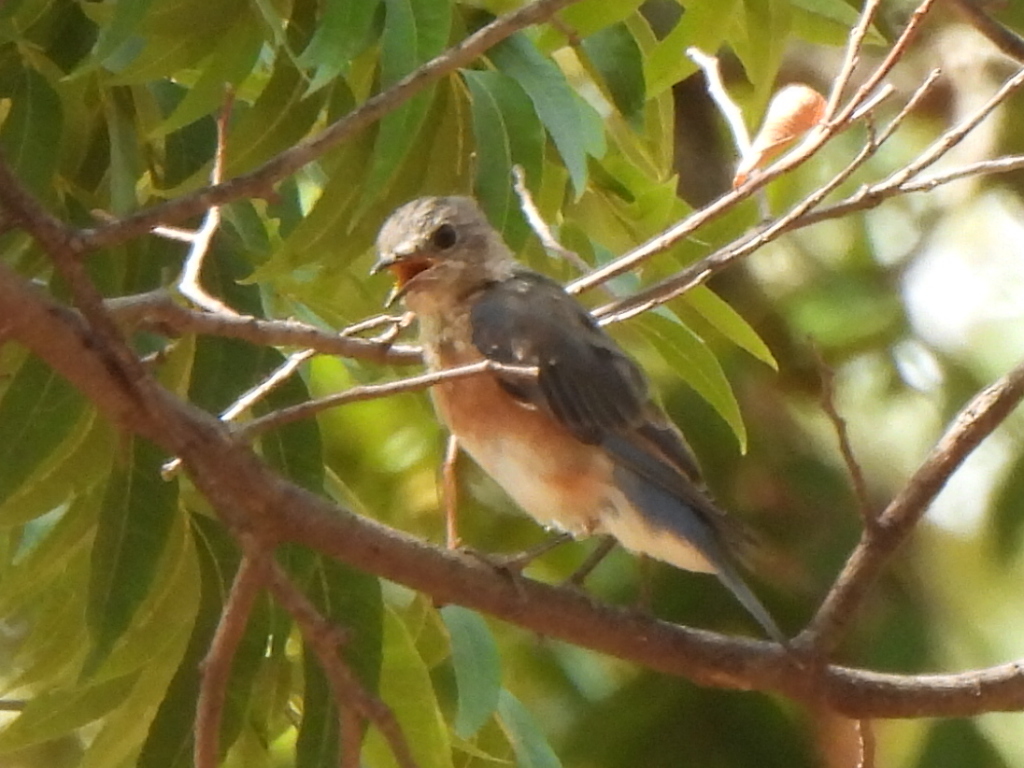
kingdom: Animalia
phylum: Chordata
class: Aves
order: Passeriformes
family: Turdidae
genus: Sialia
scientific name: Sialia sialis
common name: Eastern bluebird
